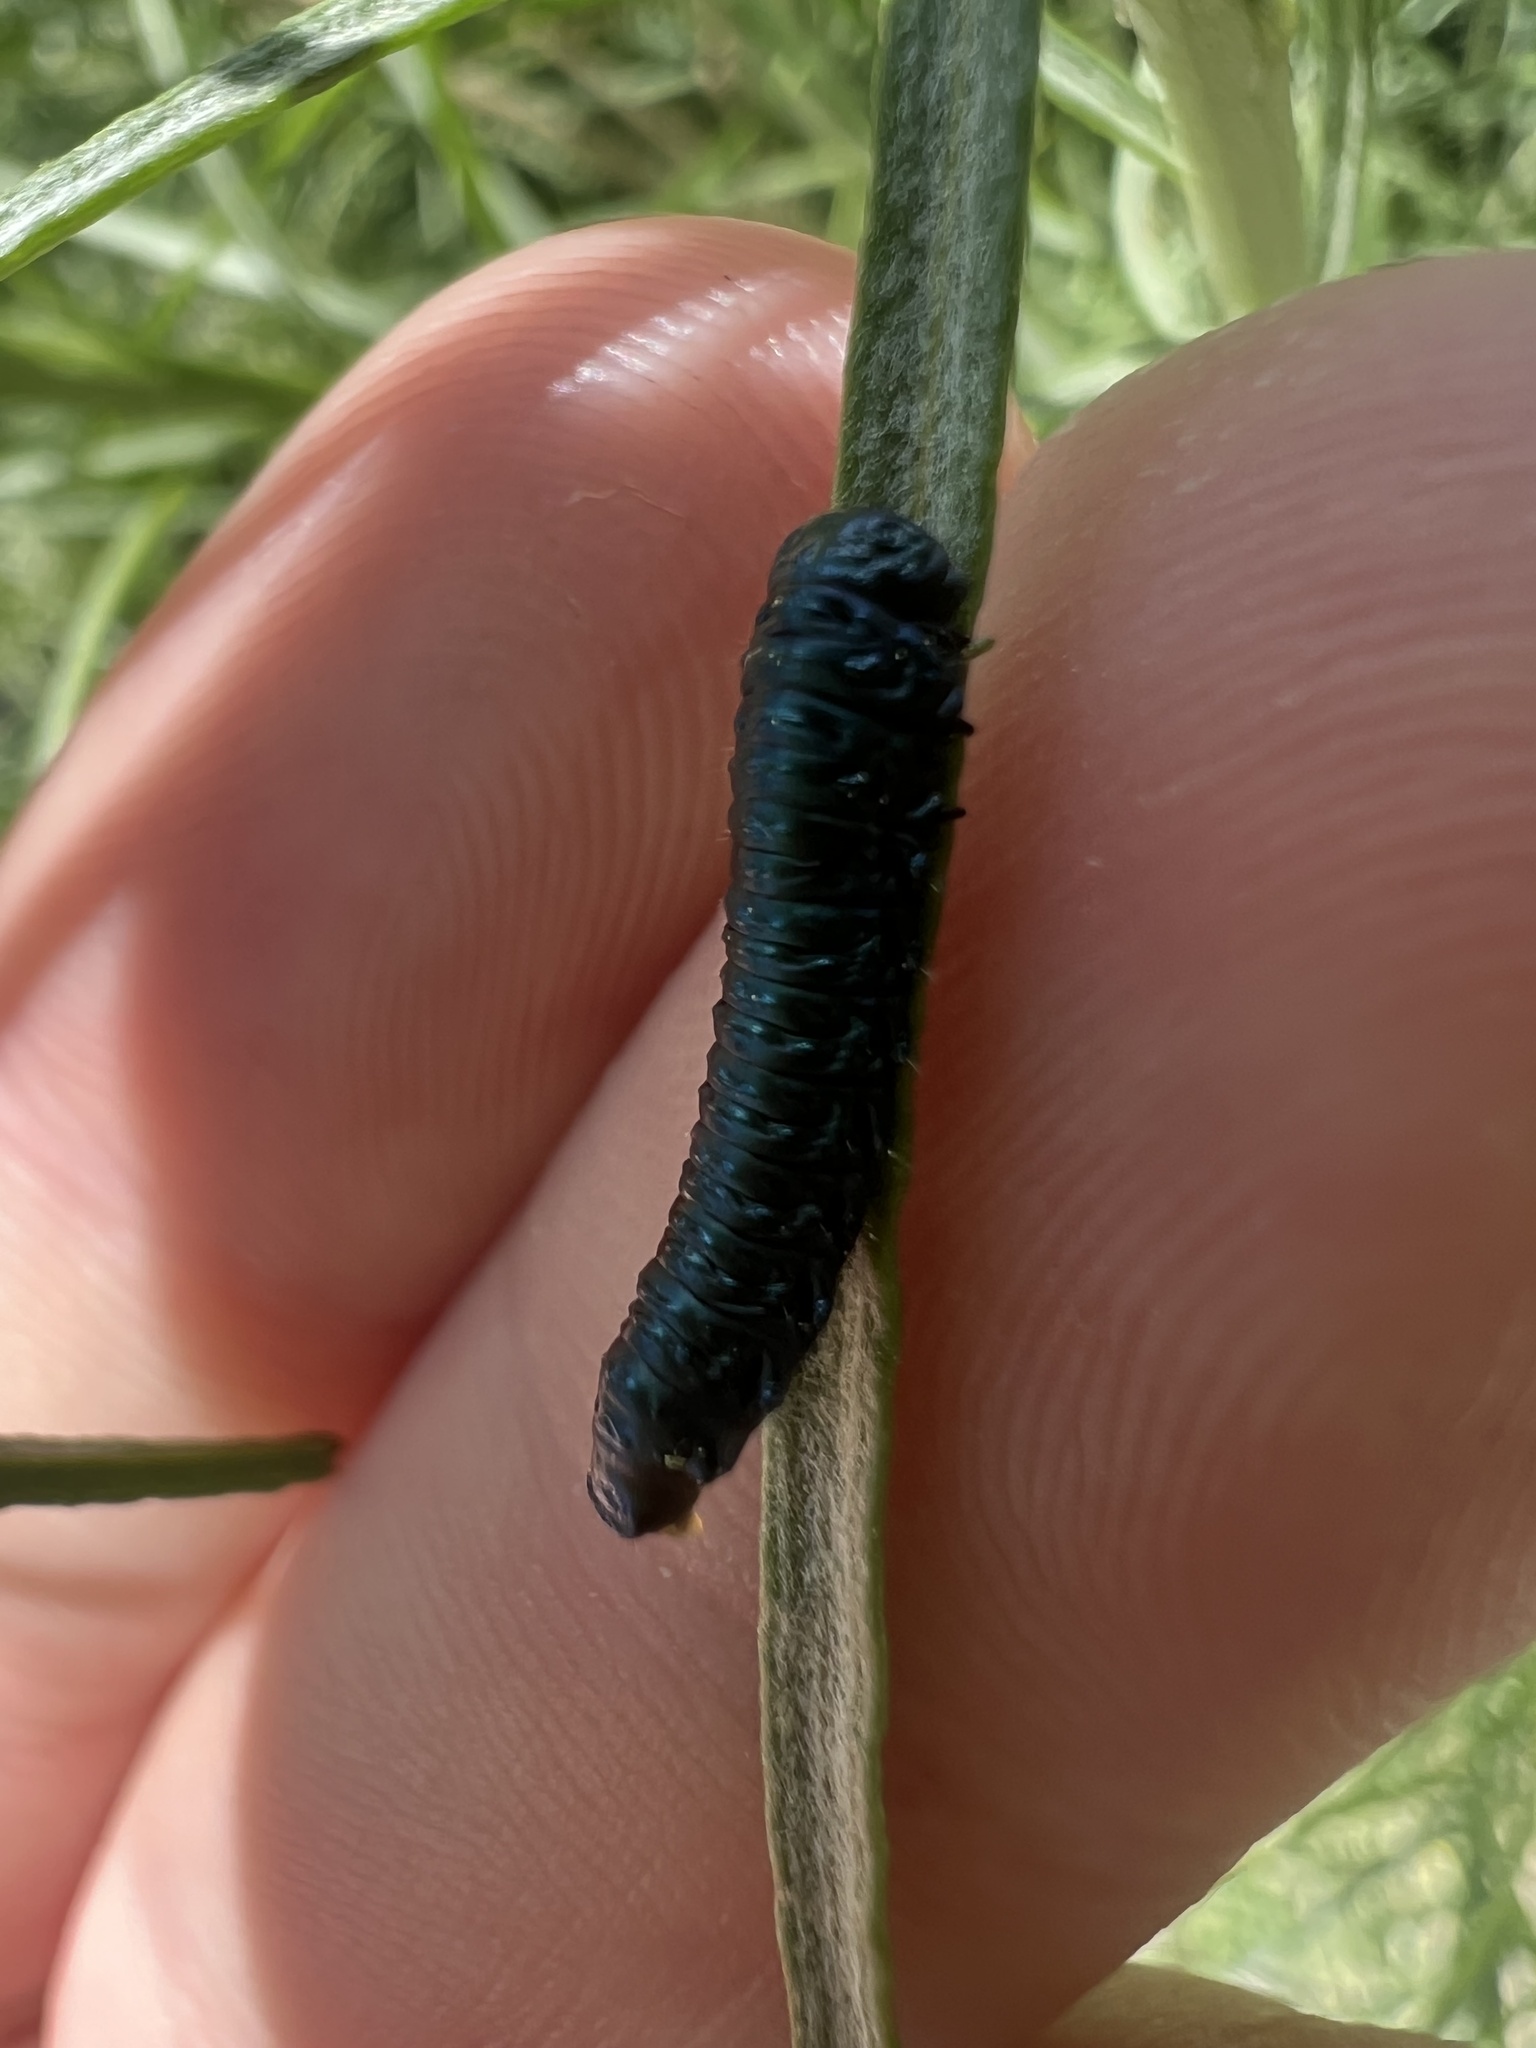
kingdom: Animalia
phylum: Arthropoda
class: Insecta
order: Coleoptera
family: Chrysomelidae
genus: Trirhabda
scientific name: Trirhabda nitidicollis
